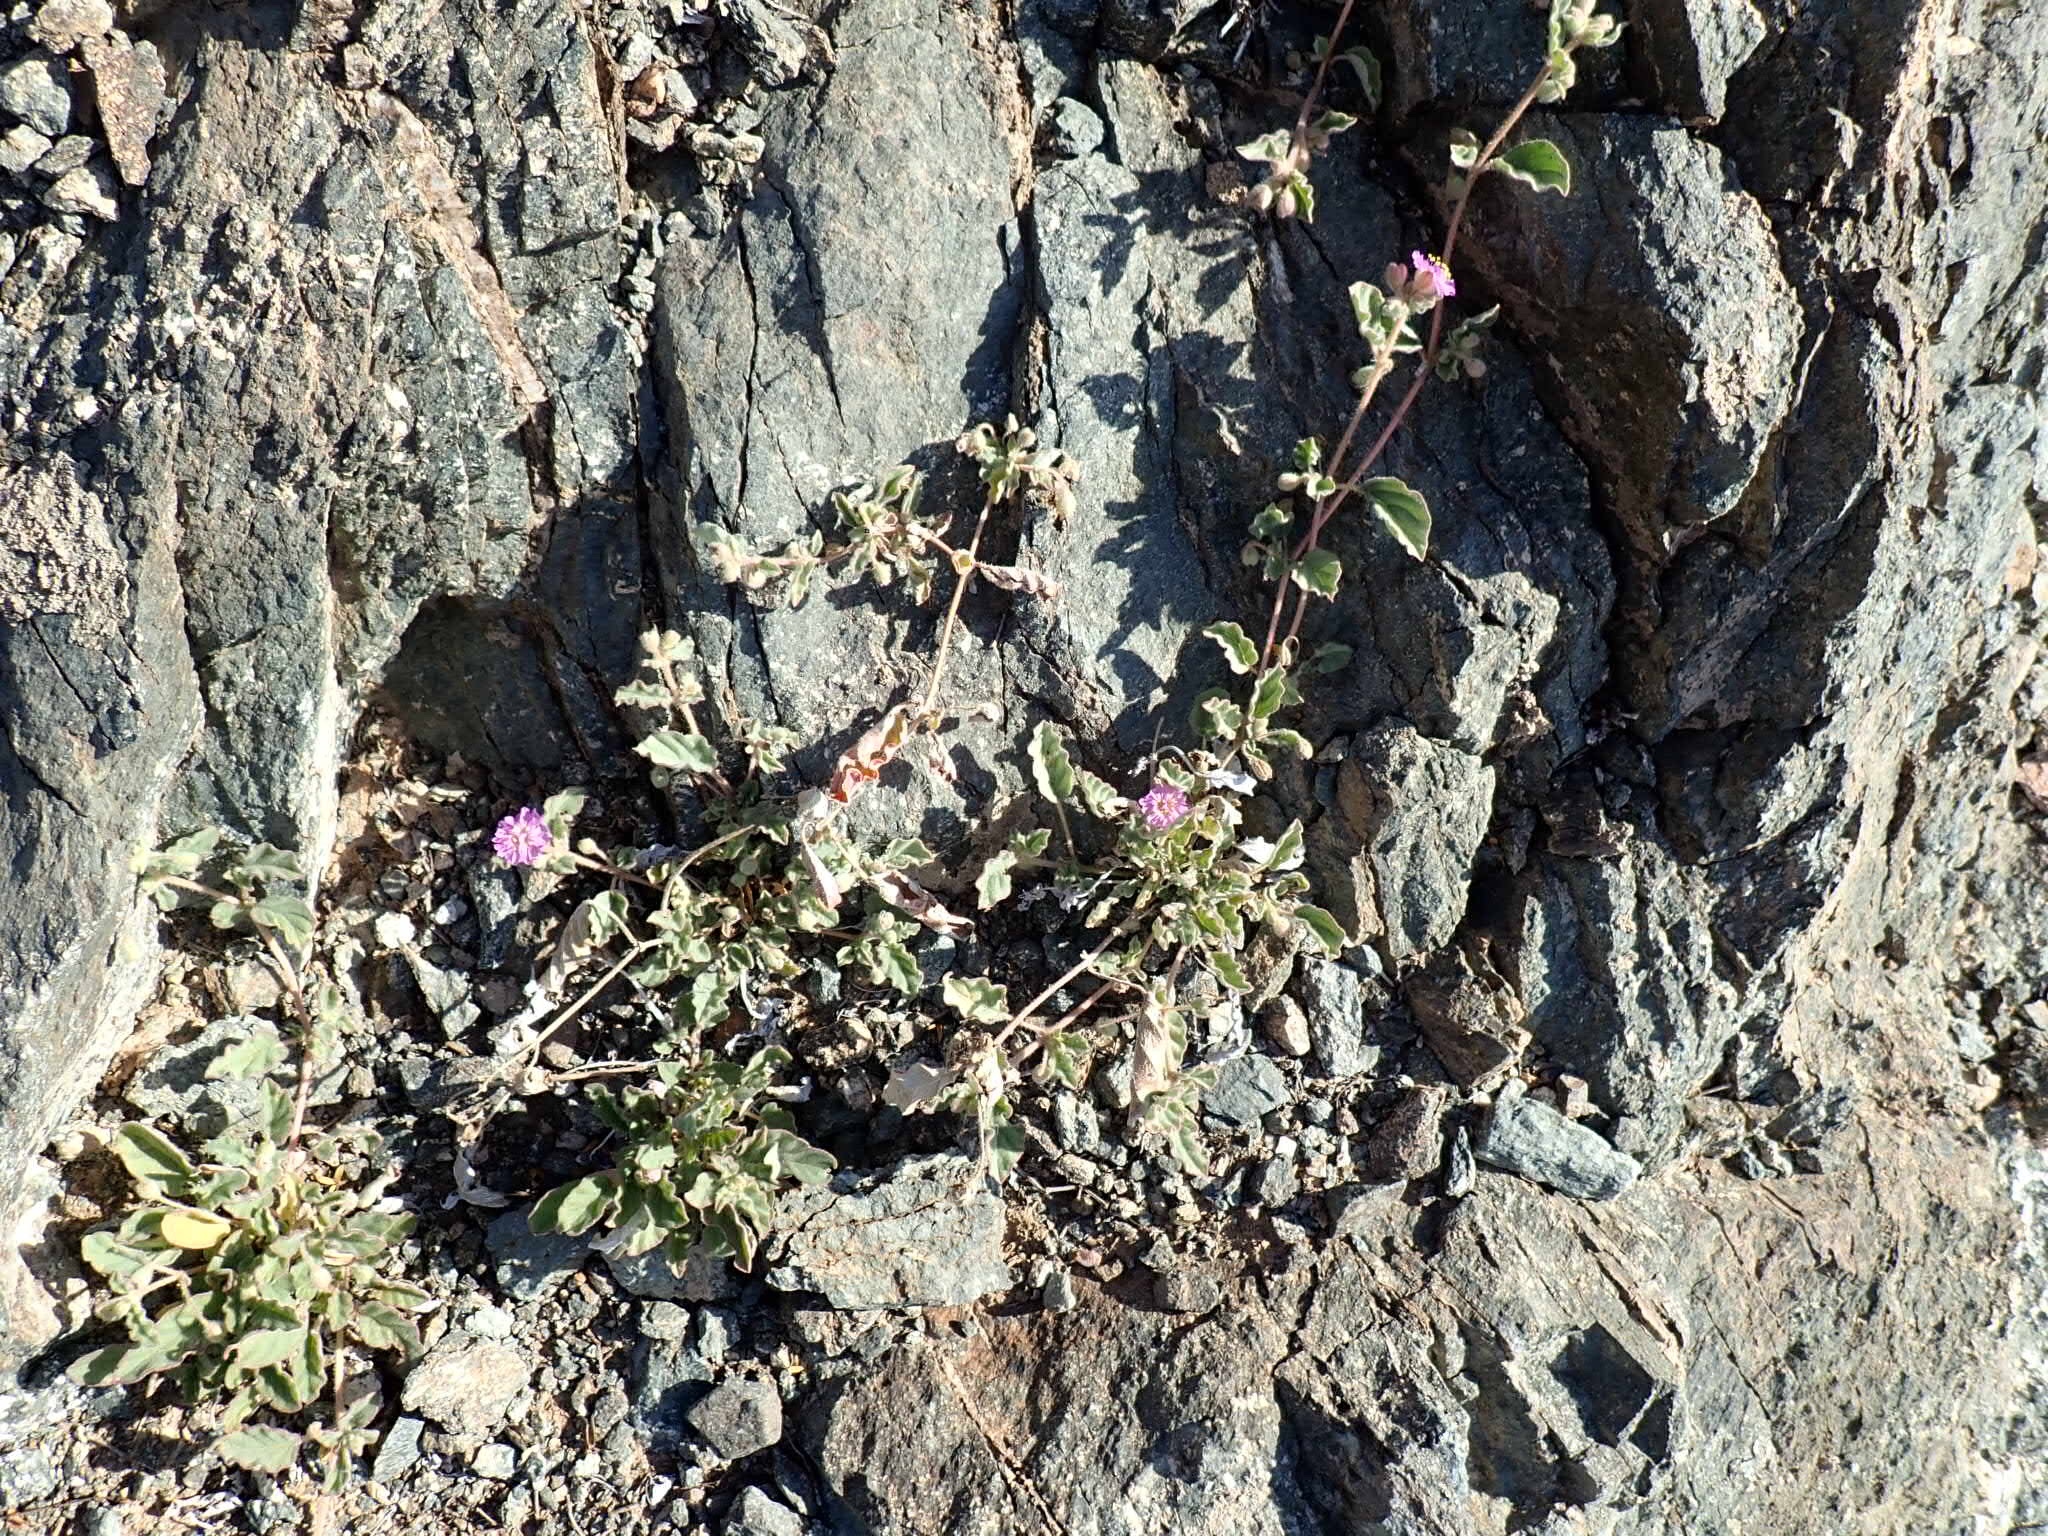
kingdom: Plantae
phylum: Tracheophyta
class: Magnoliopsida
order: Caryophyllales
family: Nyctaginaceae
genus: Allionia
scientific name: Allionia incarnata
